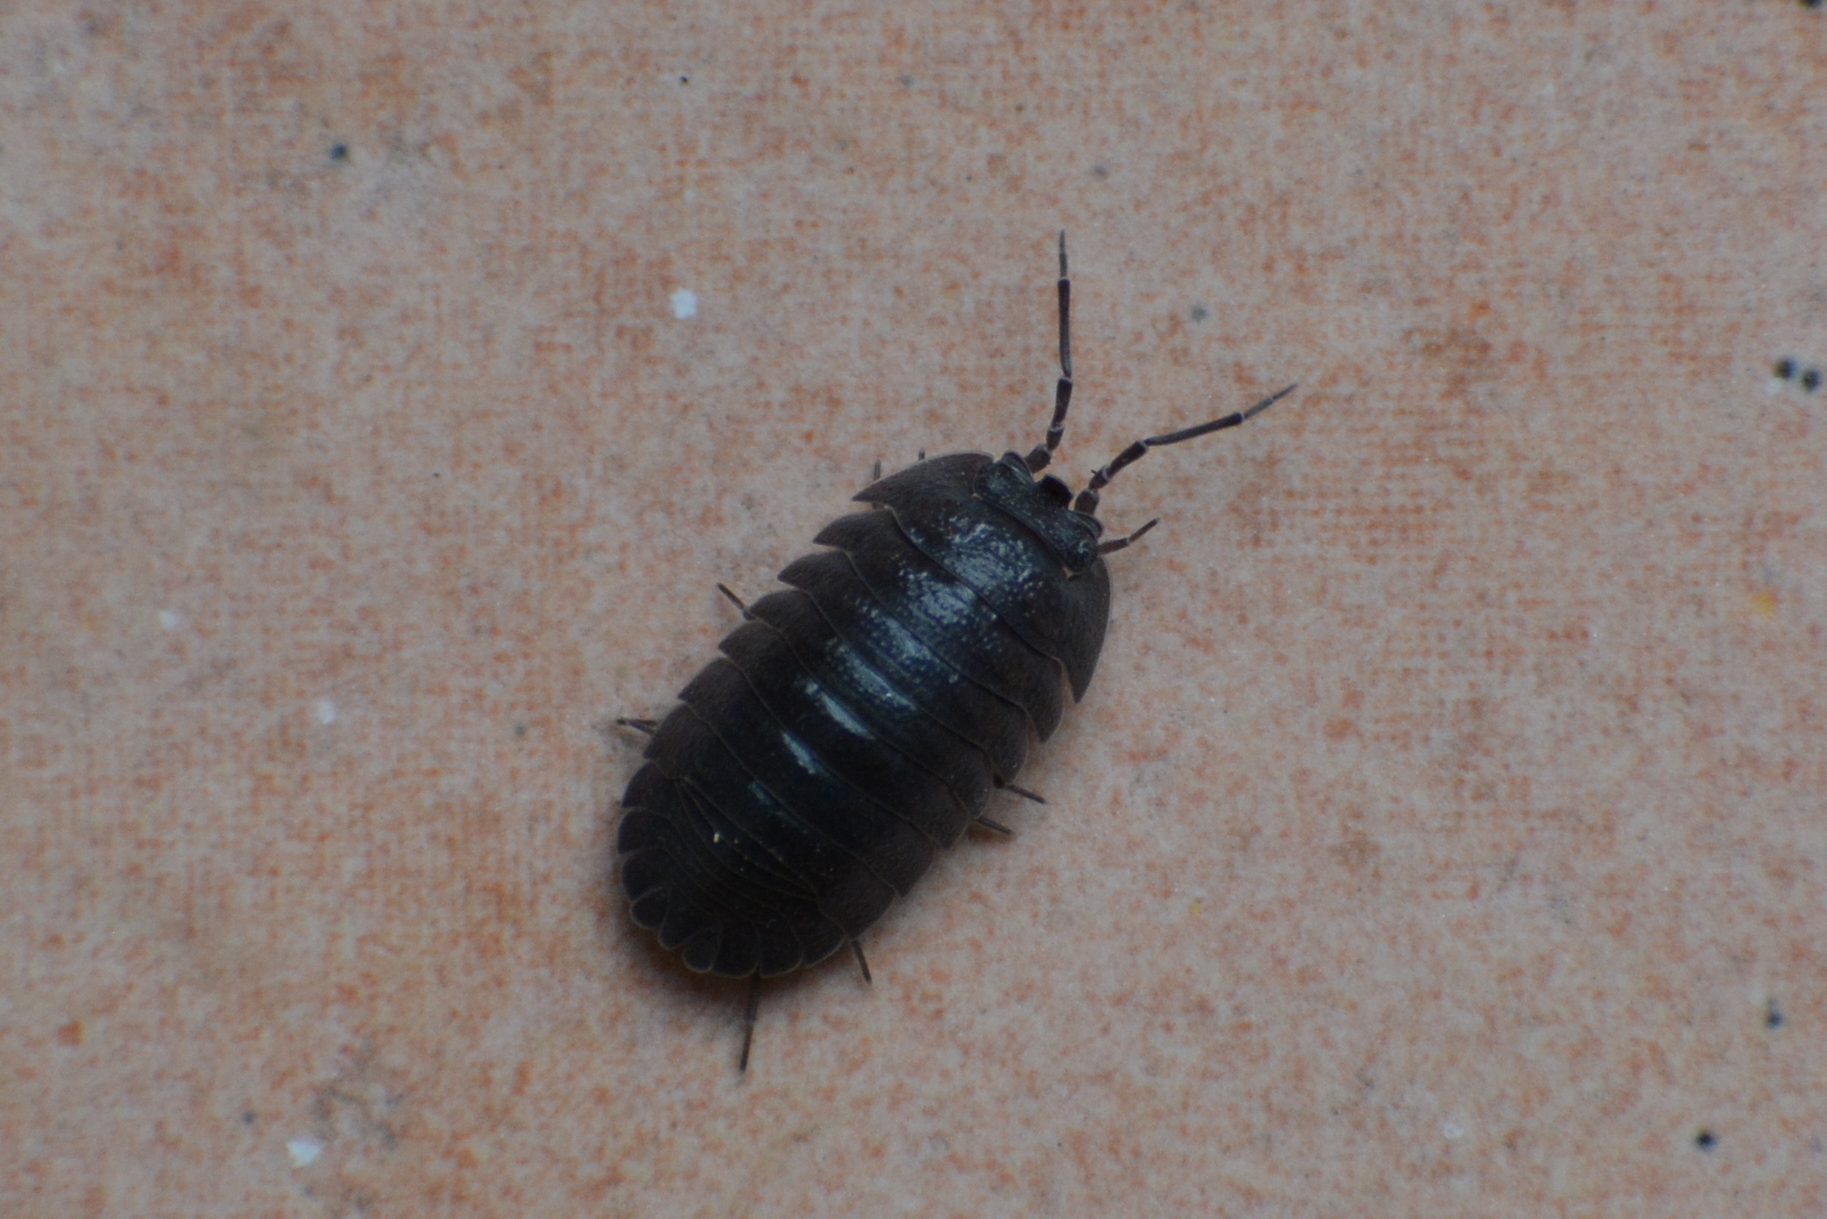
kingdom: Animalia
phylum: Arthropoda
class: Malacostraca
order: Isopoda
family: Armadillidiidae
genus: Armadillidium
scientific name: Armadillidium pallasii
